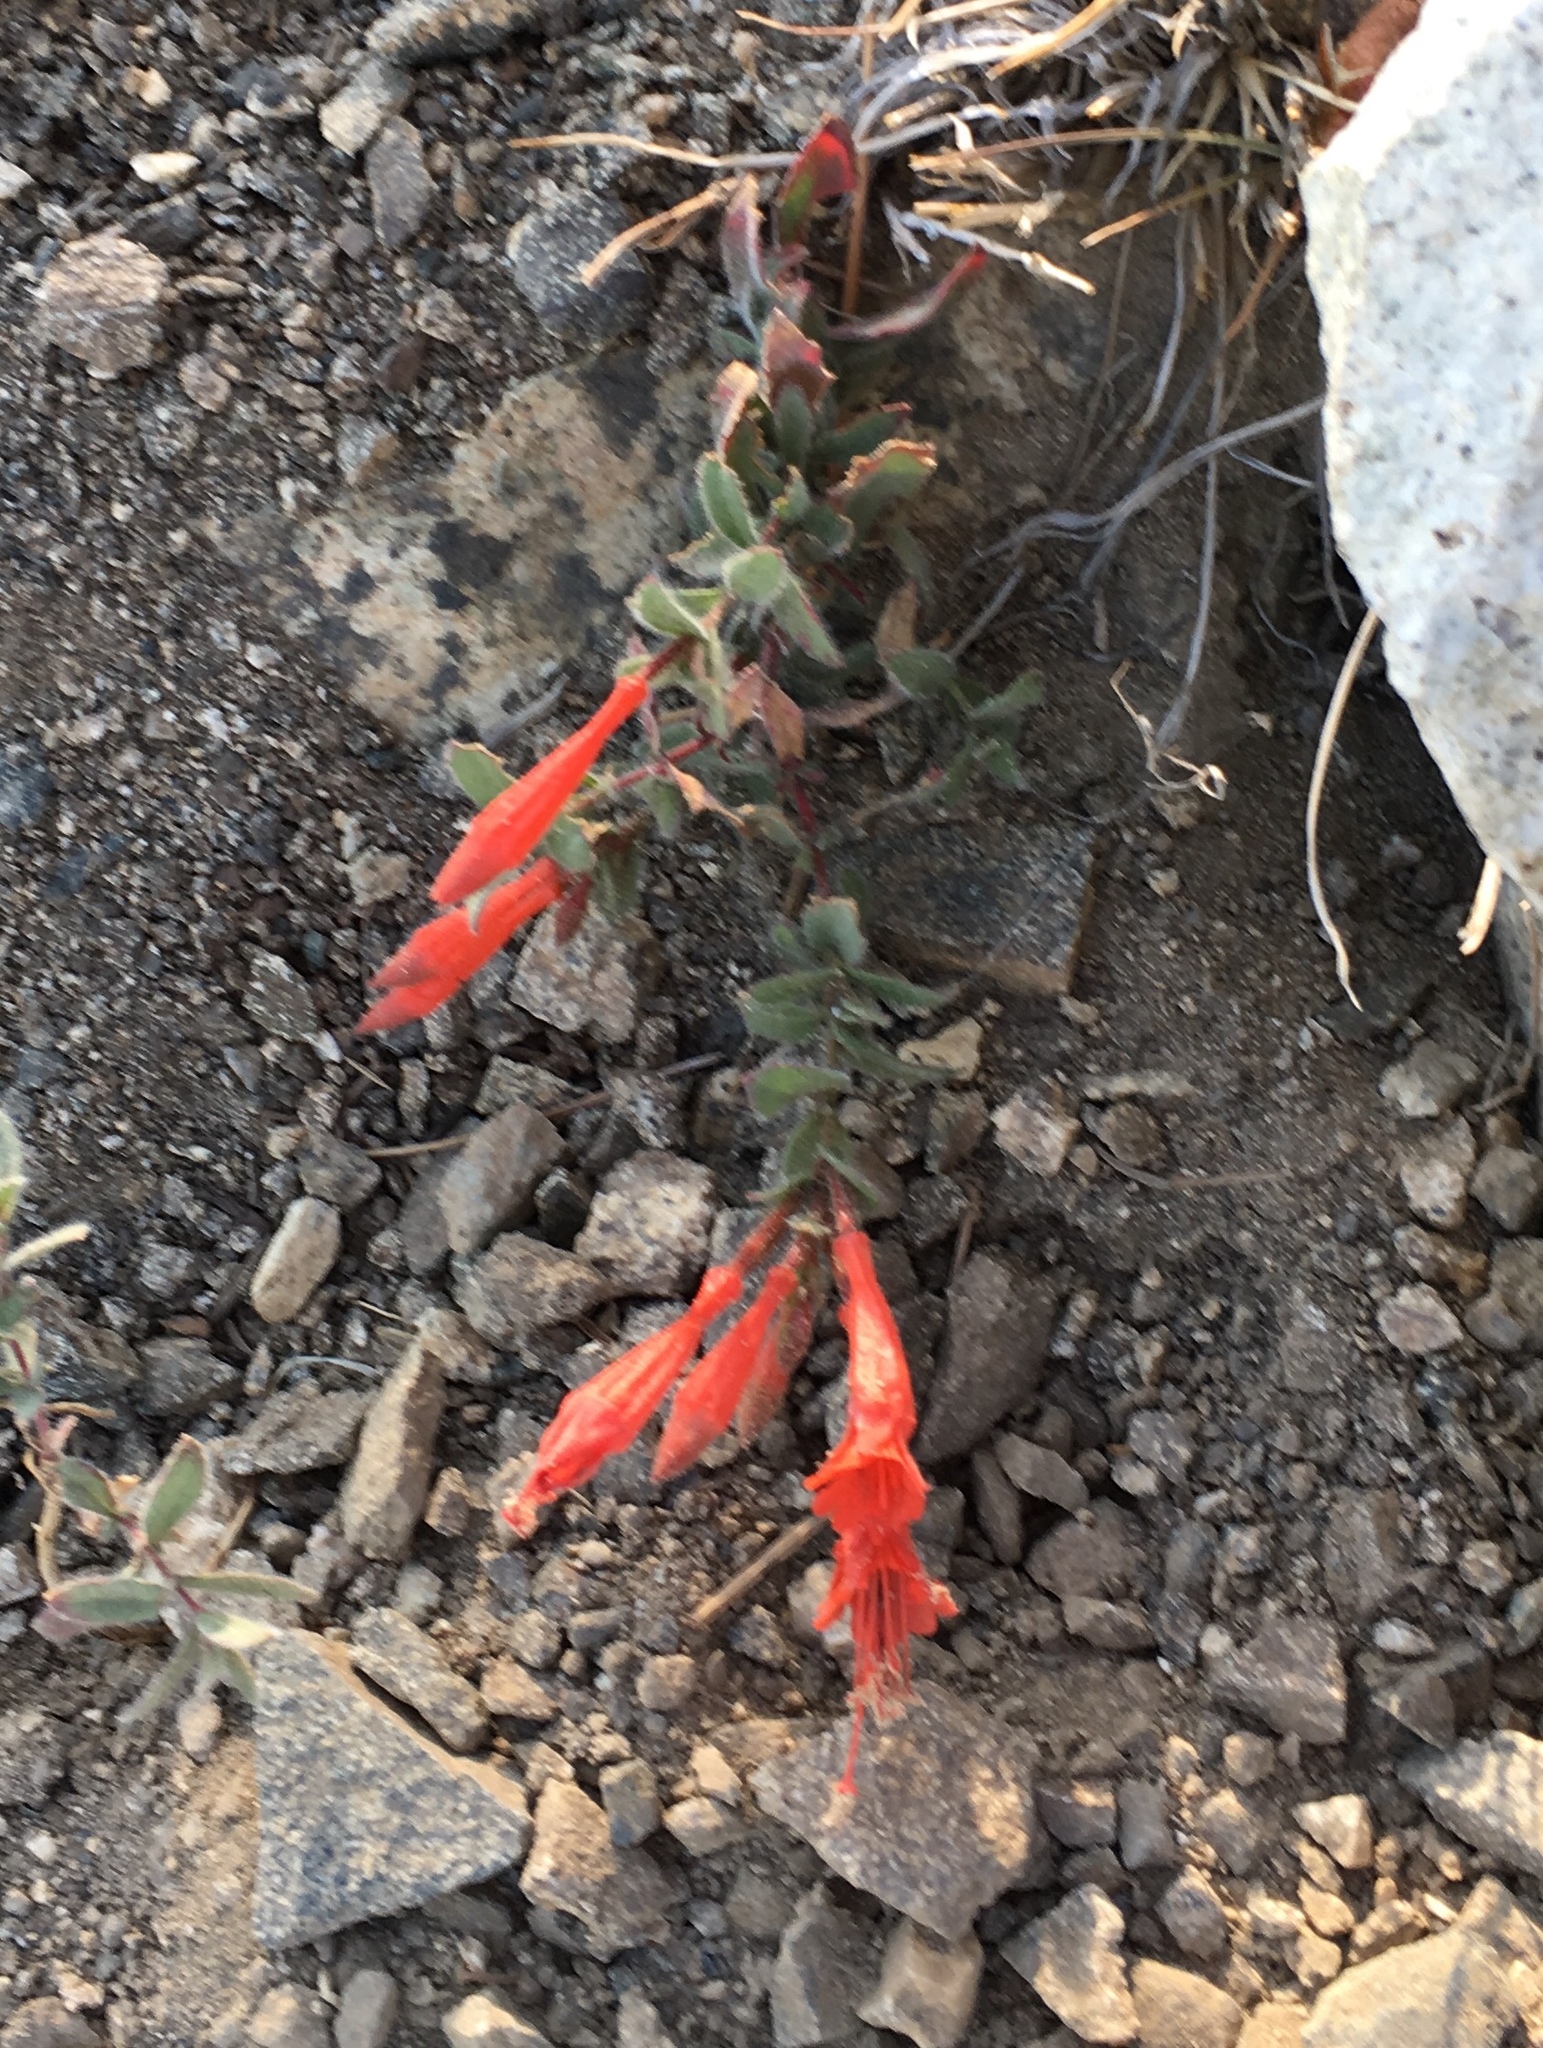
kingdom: Plantae
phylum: Tracheophyta
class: Magnoliopsida
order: Myrtales
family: Onagraceae
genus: Epilobium
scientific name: Epilobium canum
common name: California-fuchsia
